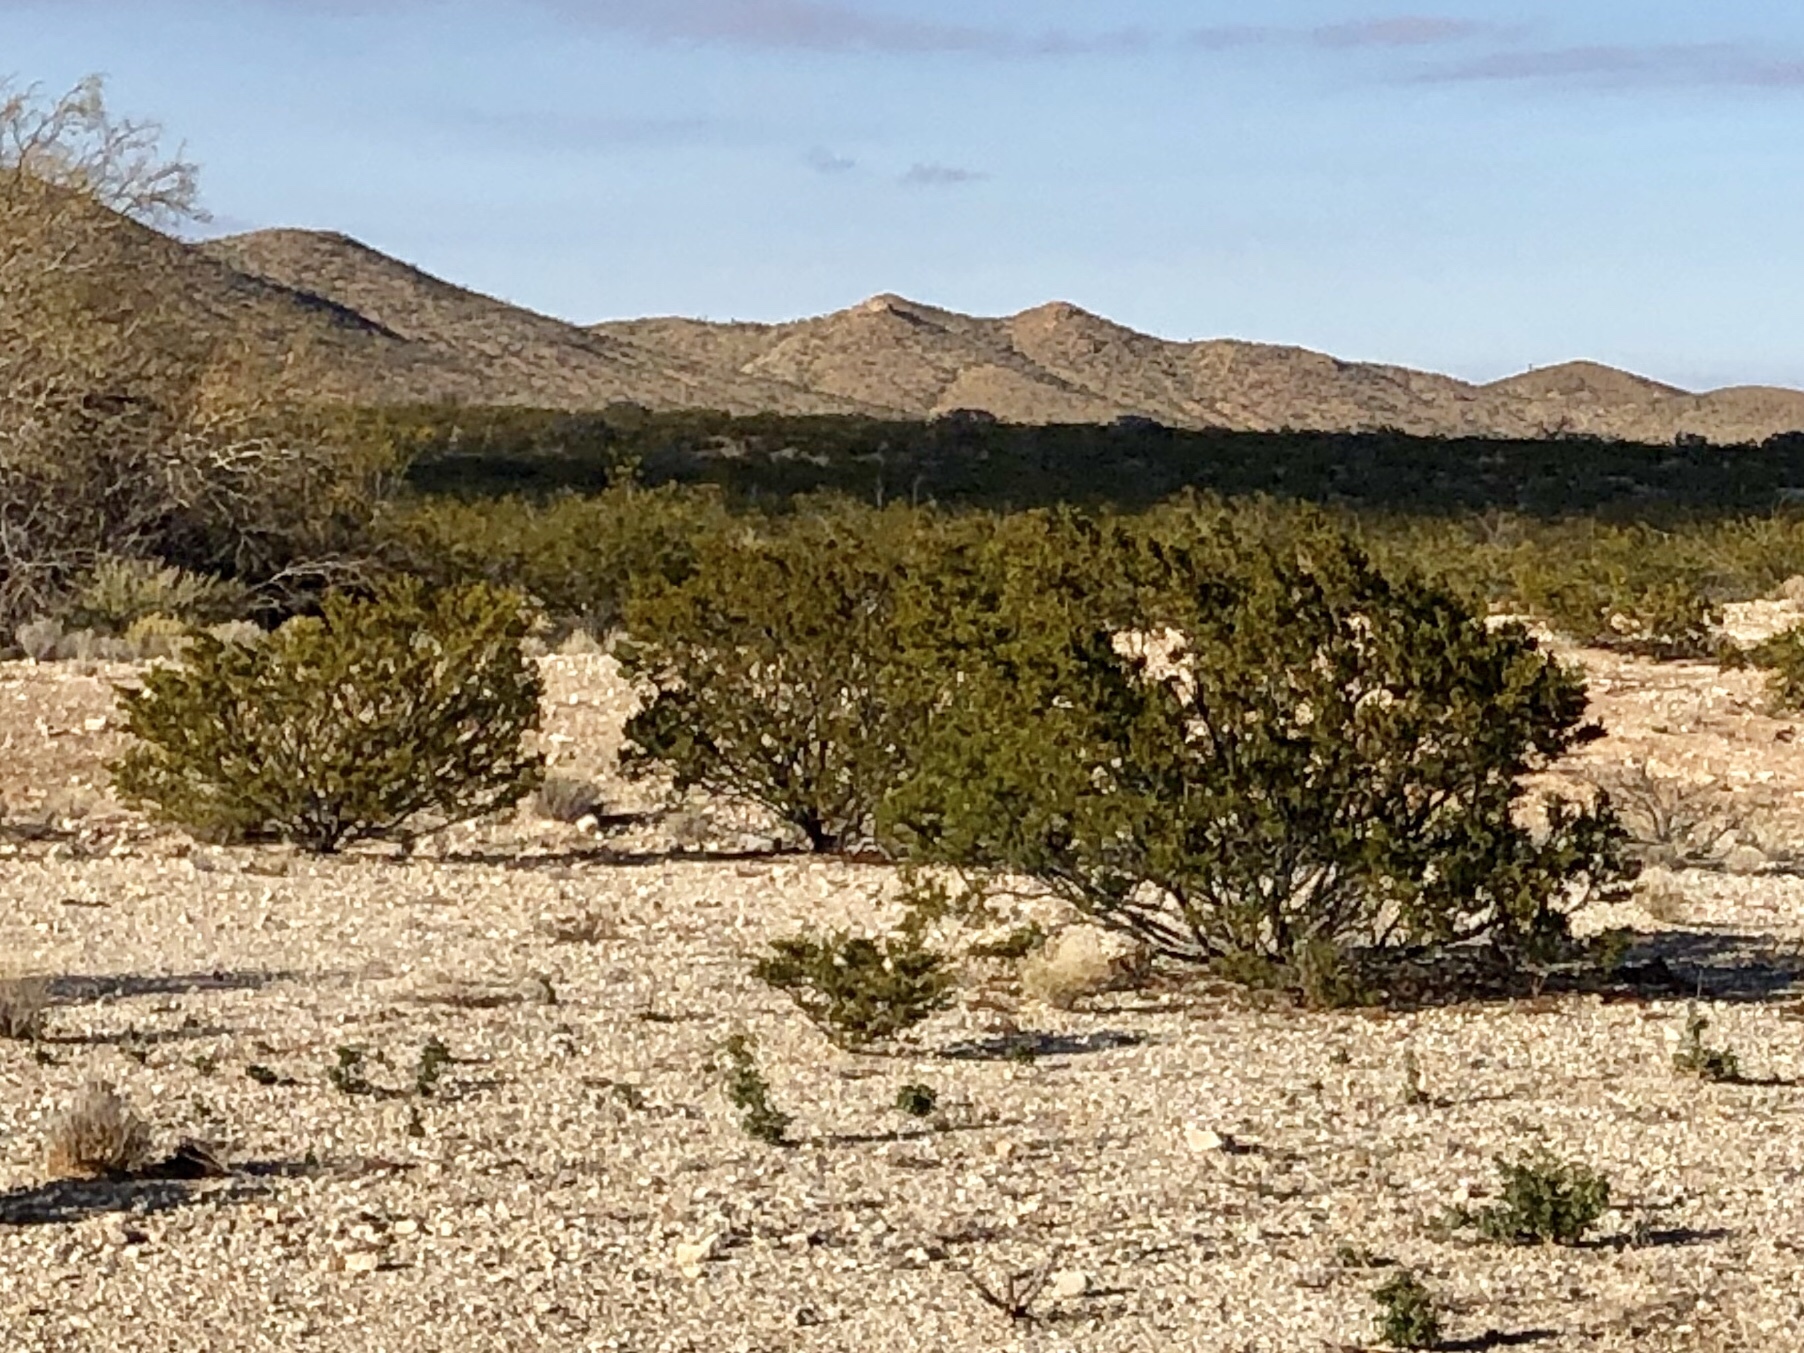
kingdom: Plantae
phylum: Tracheophyta
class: Magnoliopsida
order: Zygophyllales
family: Zygophyllaceae
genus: Larrea
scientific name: Larrea tridentata
